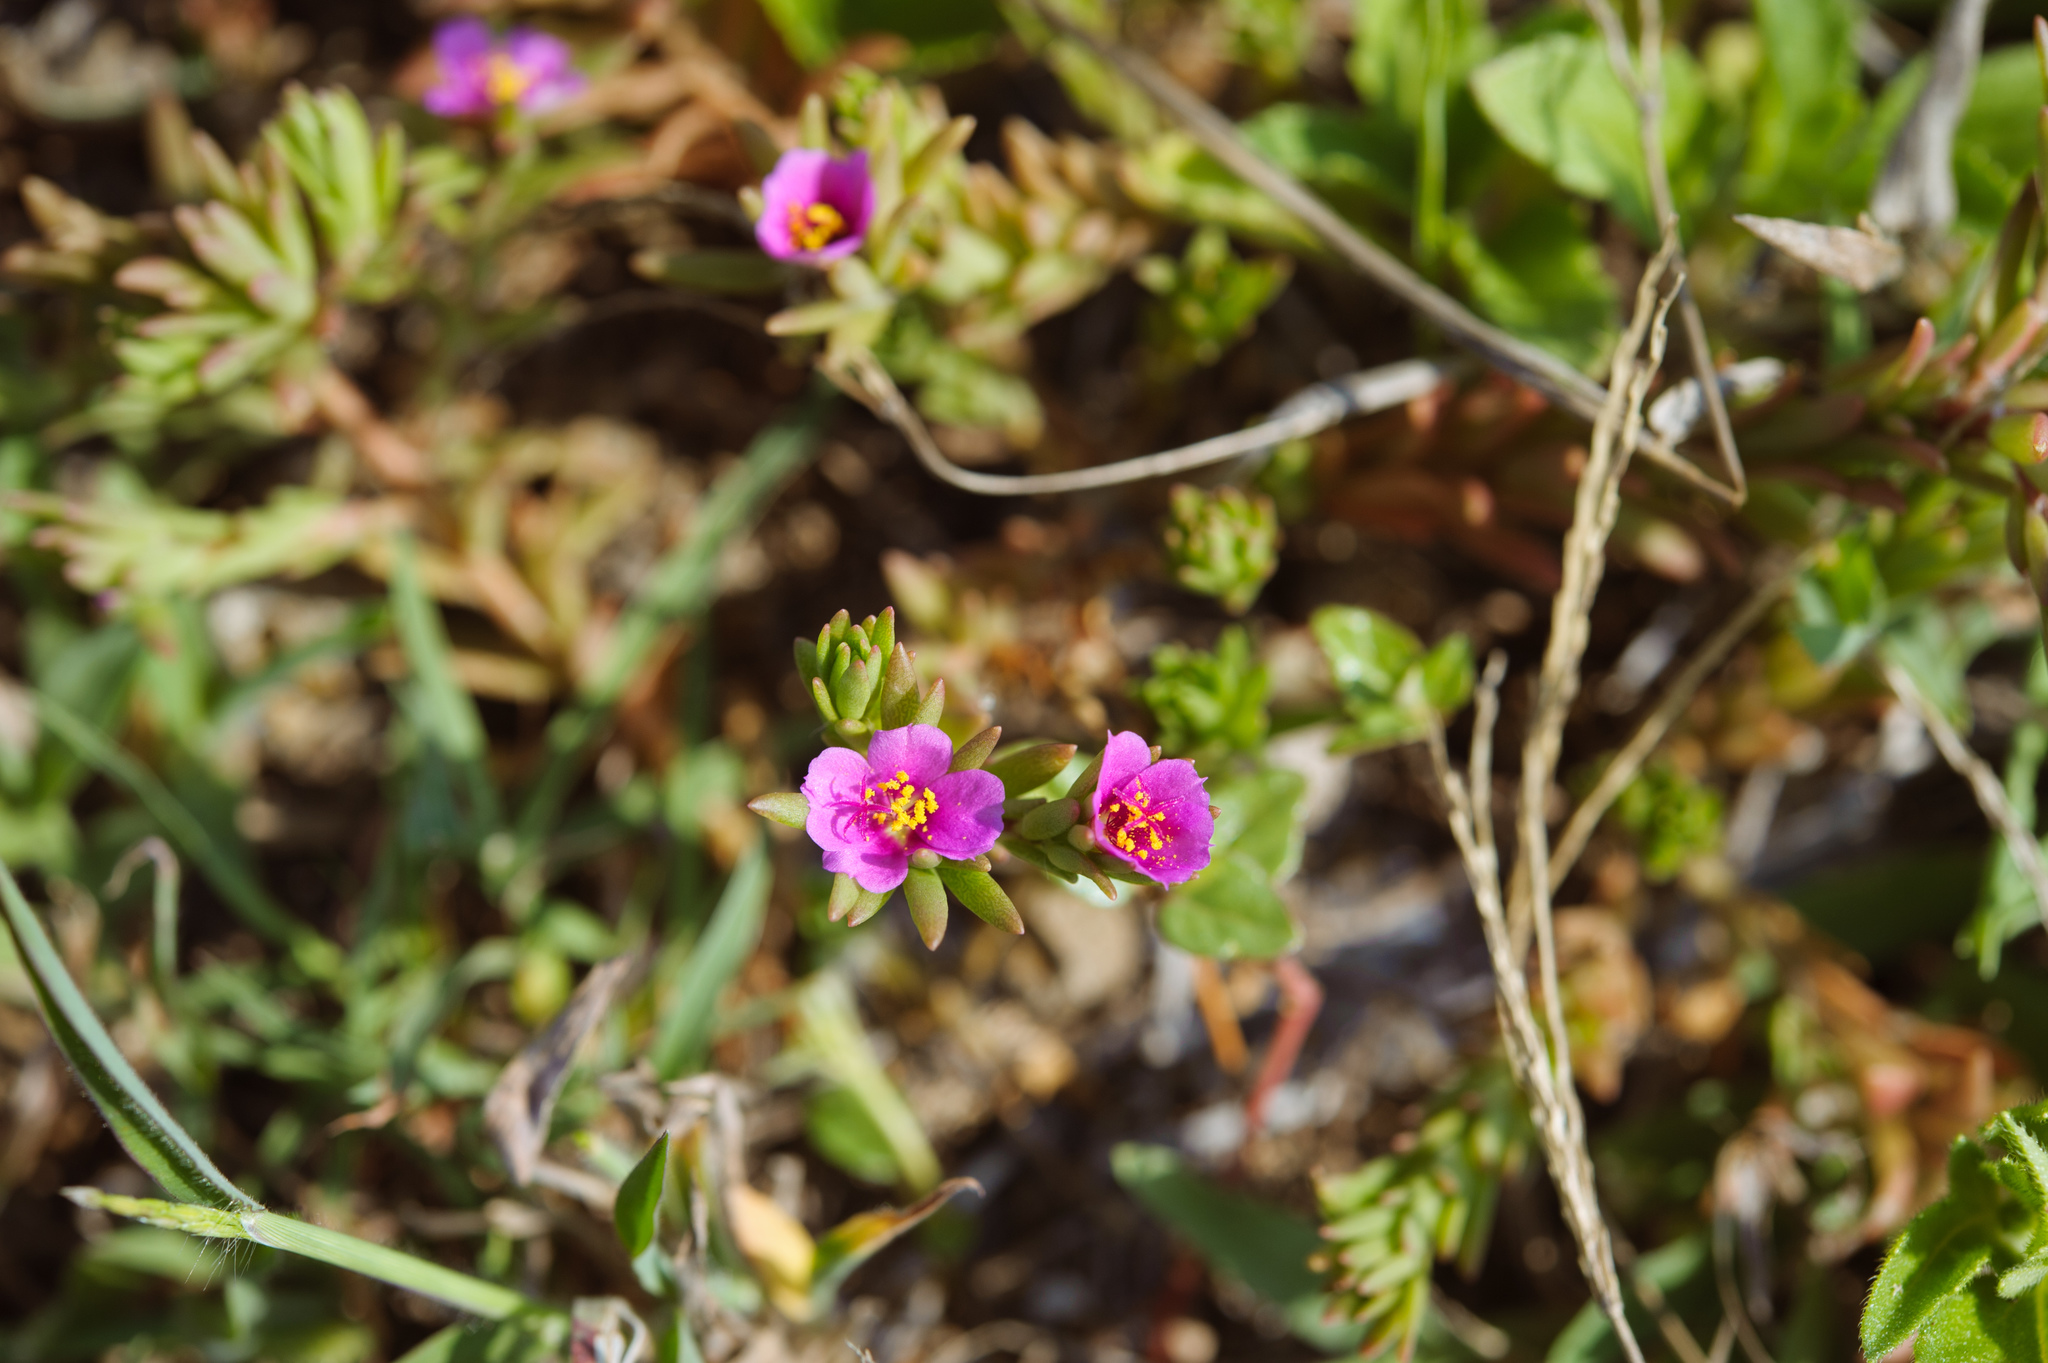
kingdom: Plantae
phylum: Tracheophyta
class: Magnoliopsida
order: Caryophyllales
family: Portulacaceae
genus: Portulaca
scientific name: Portulaca pilosa
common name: Kiss me quick
